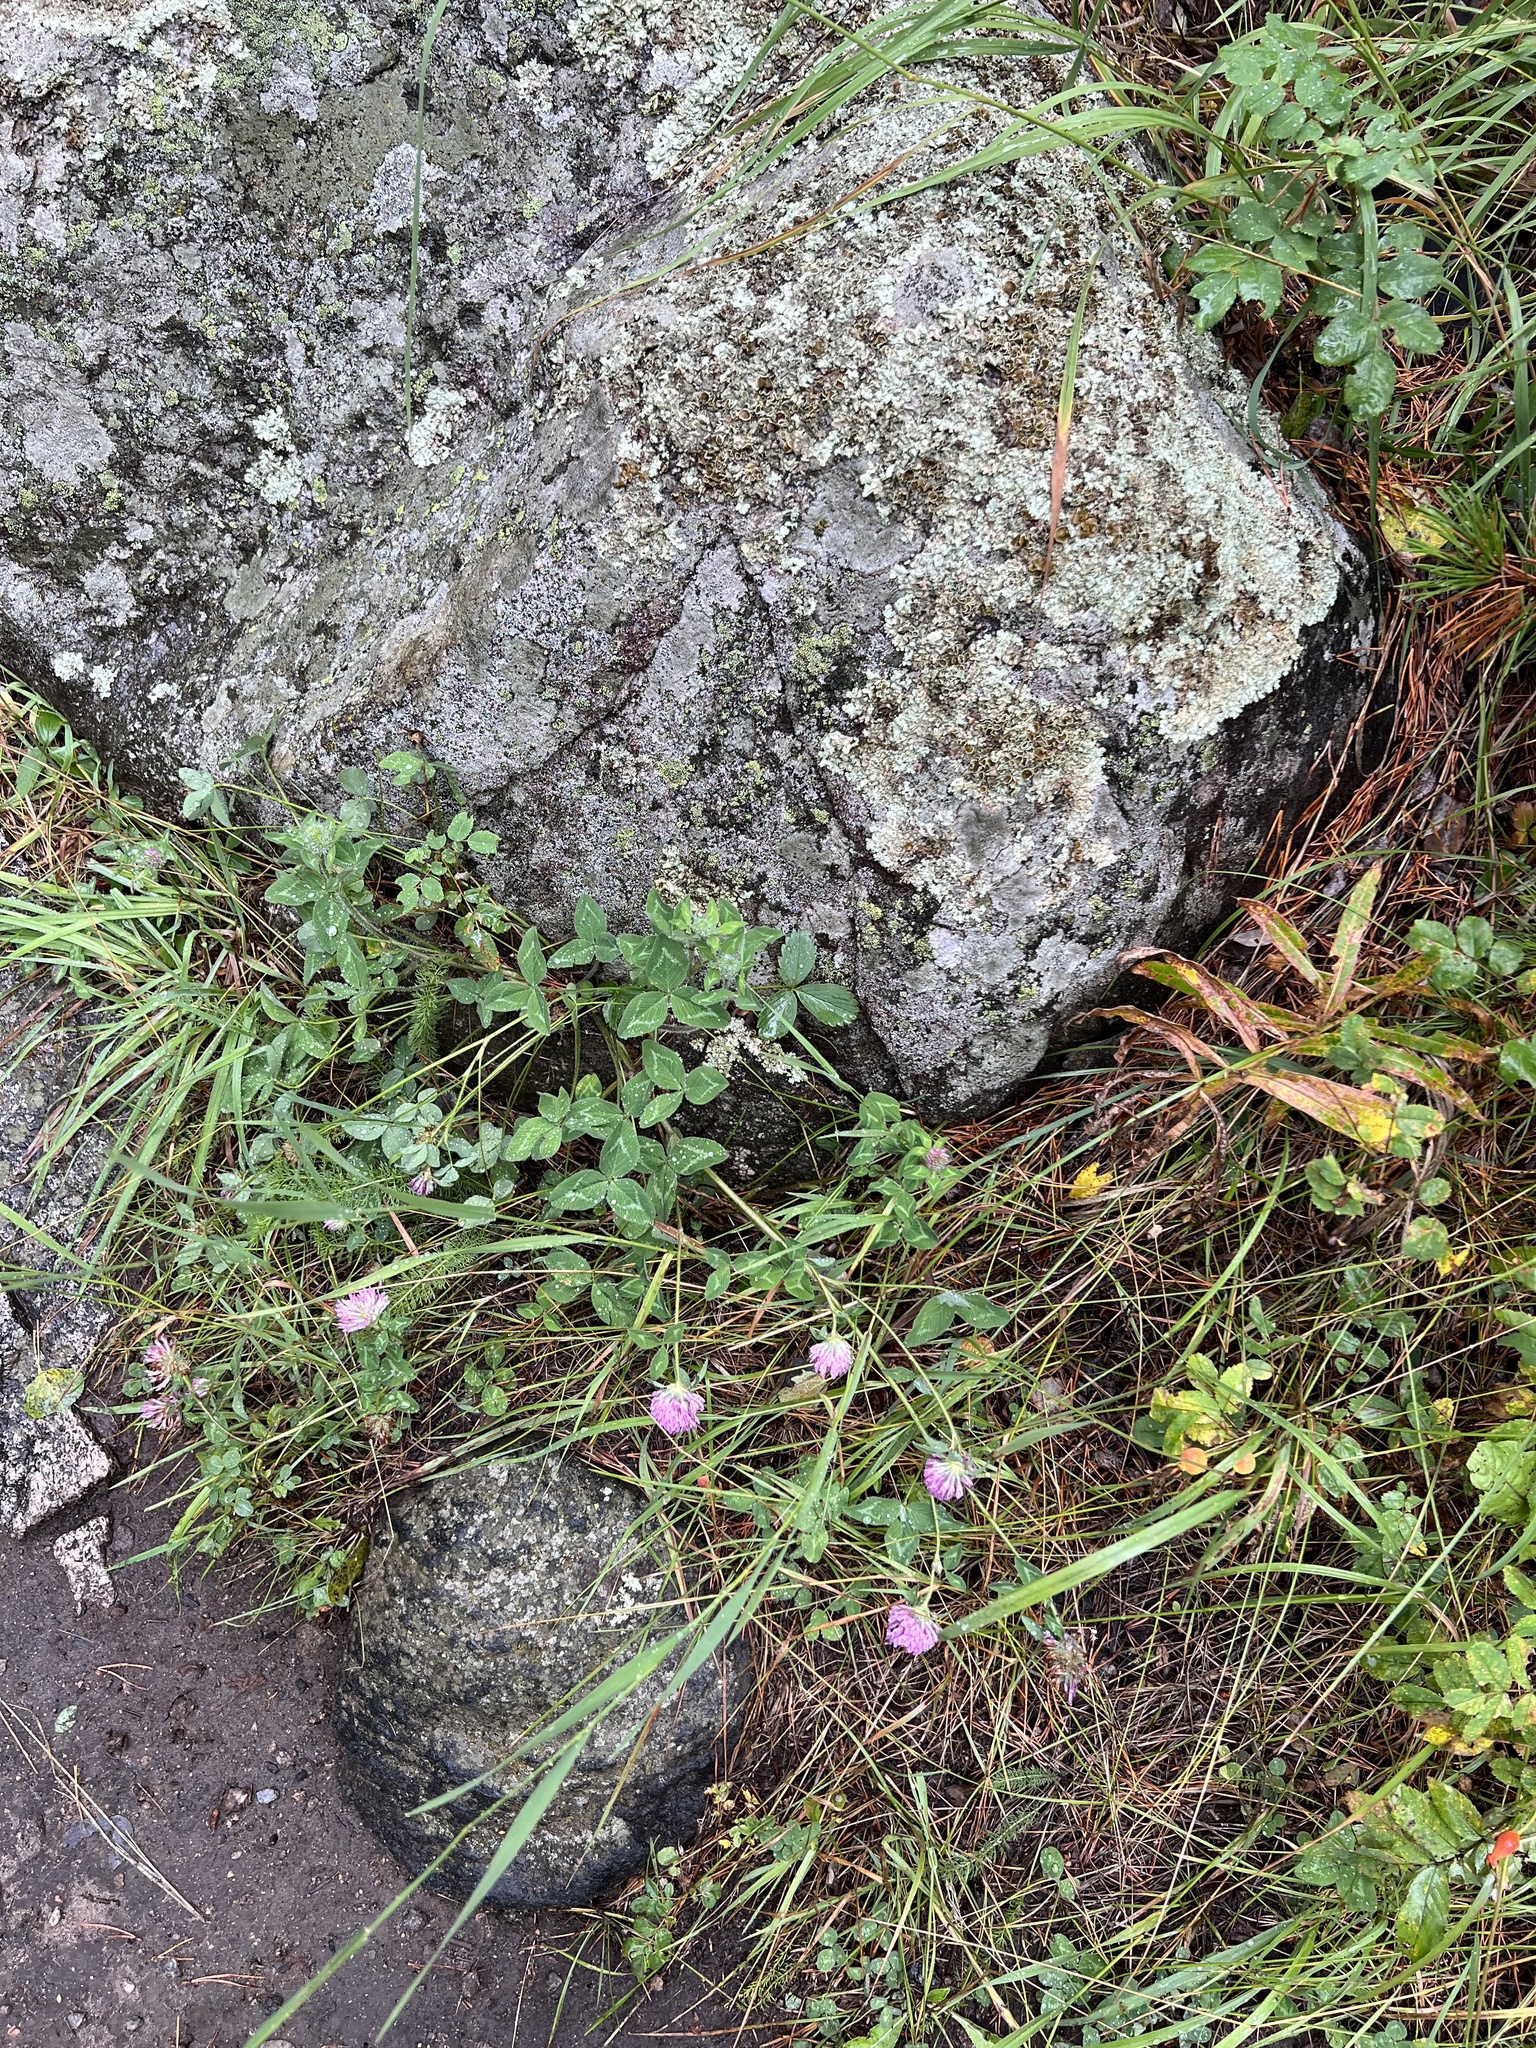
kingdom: Plantae
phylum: Tracheophyta
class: Magnoliopsida
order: Fabales
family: Fabaceae
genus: Trifolium
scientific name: Trifolium pratense
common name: Red clover
